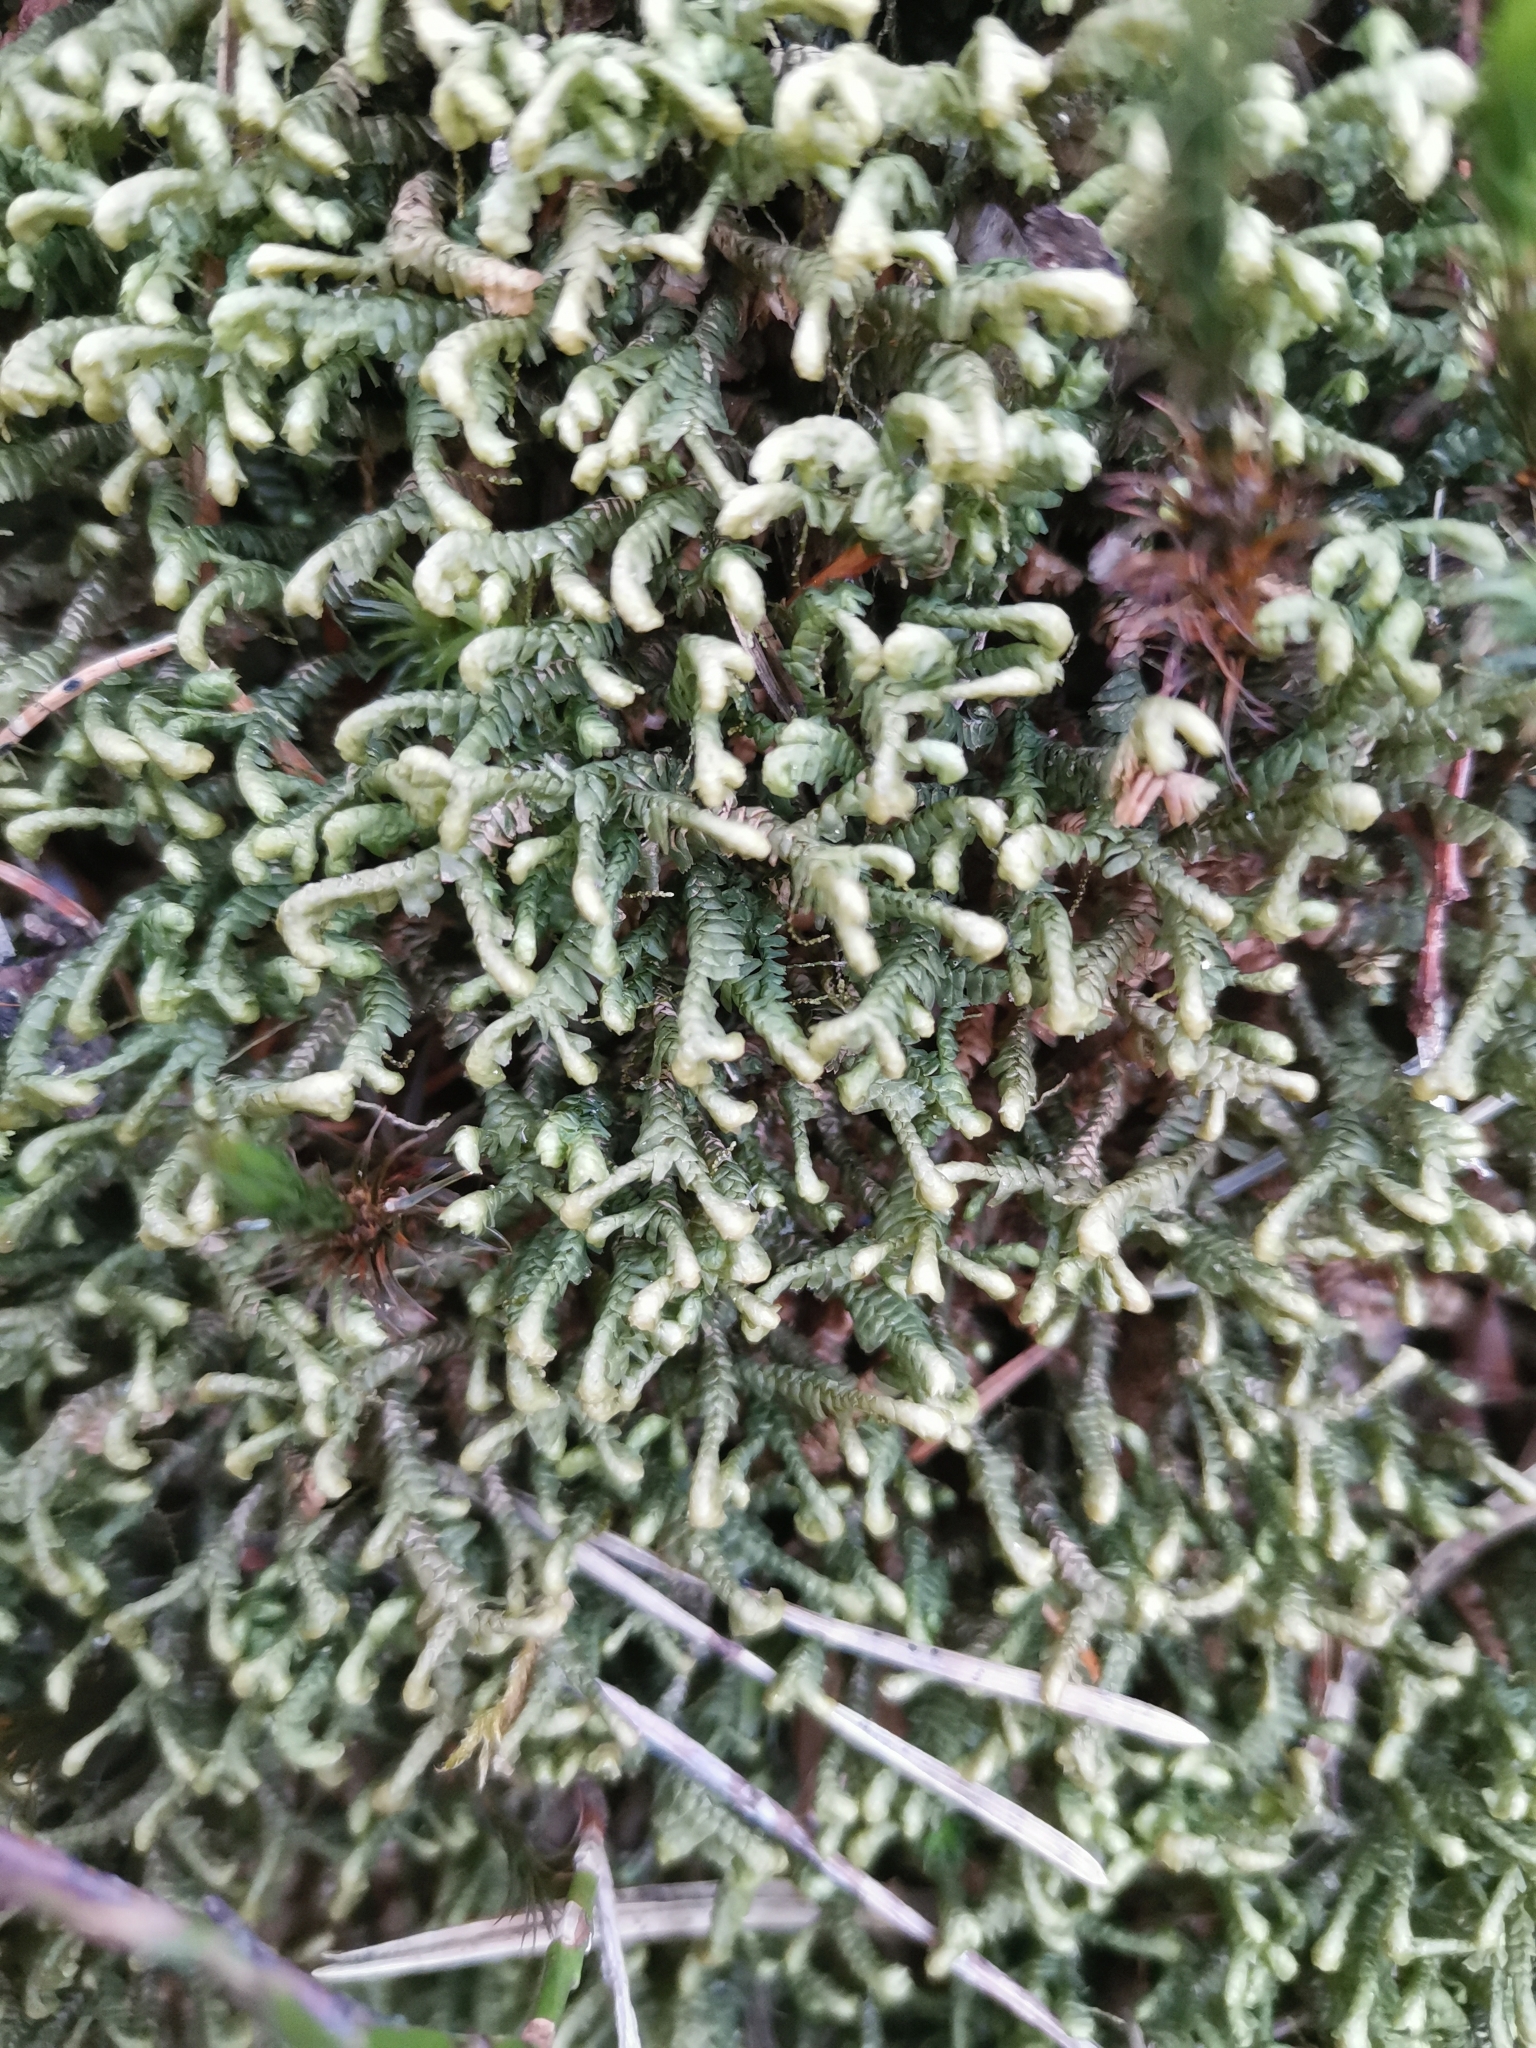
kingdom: Plantae
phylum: Marchantiophyta
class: Jungermanniopsida
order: Jungermanniales
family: Lepidoziaceae
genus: Bazzania
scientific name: Bazzania trilobata
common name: Three-lobed whipwort
